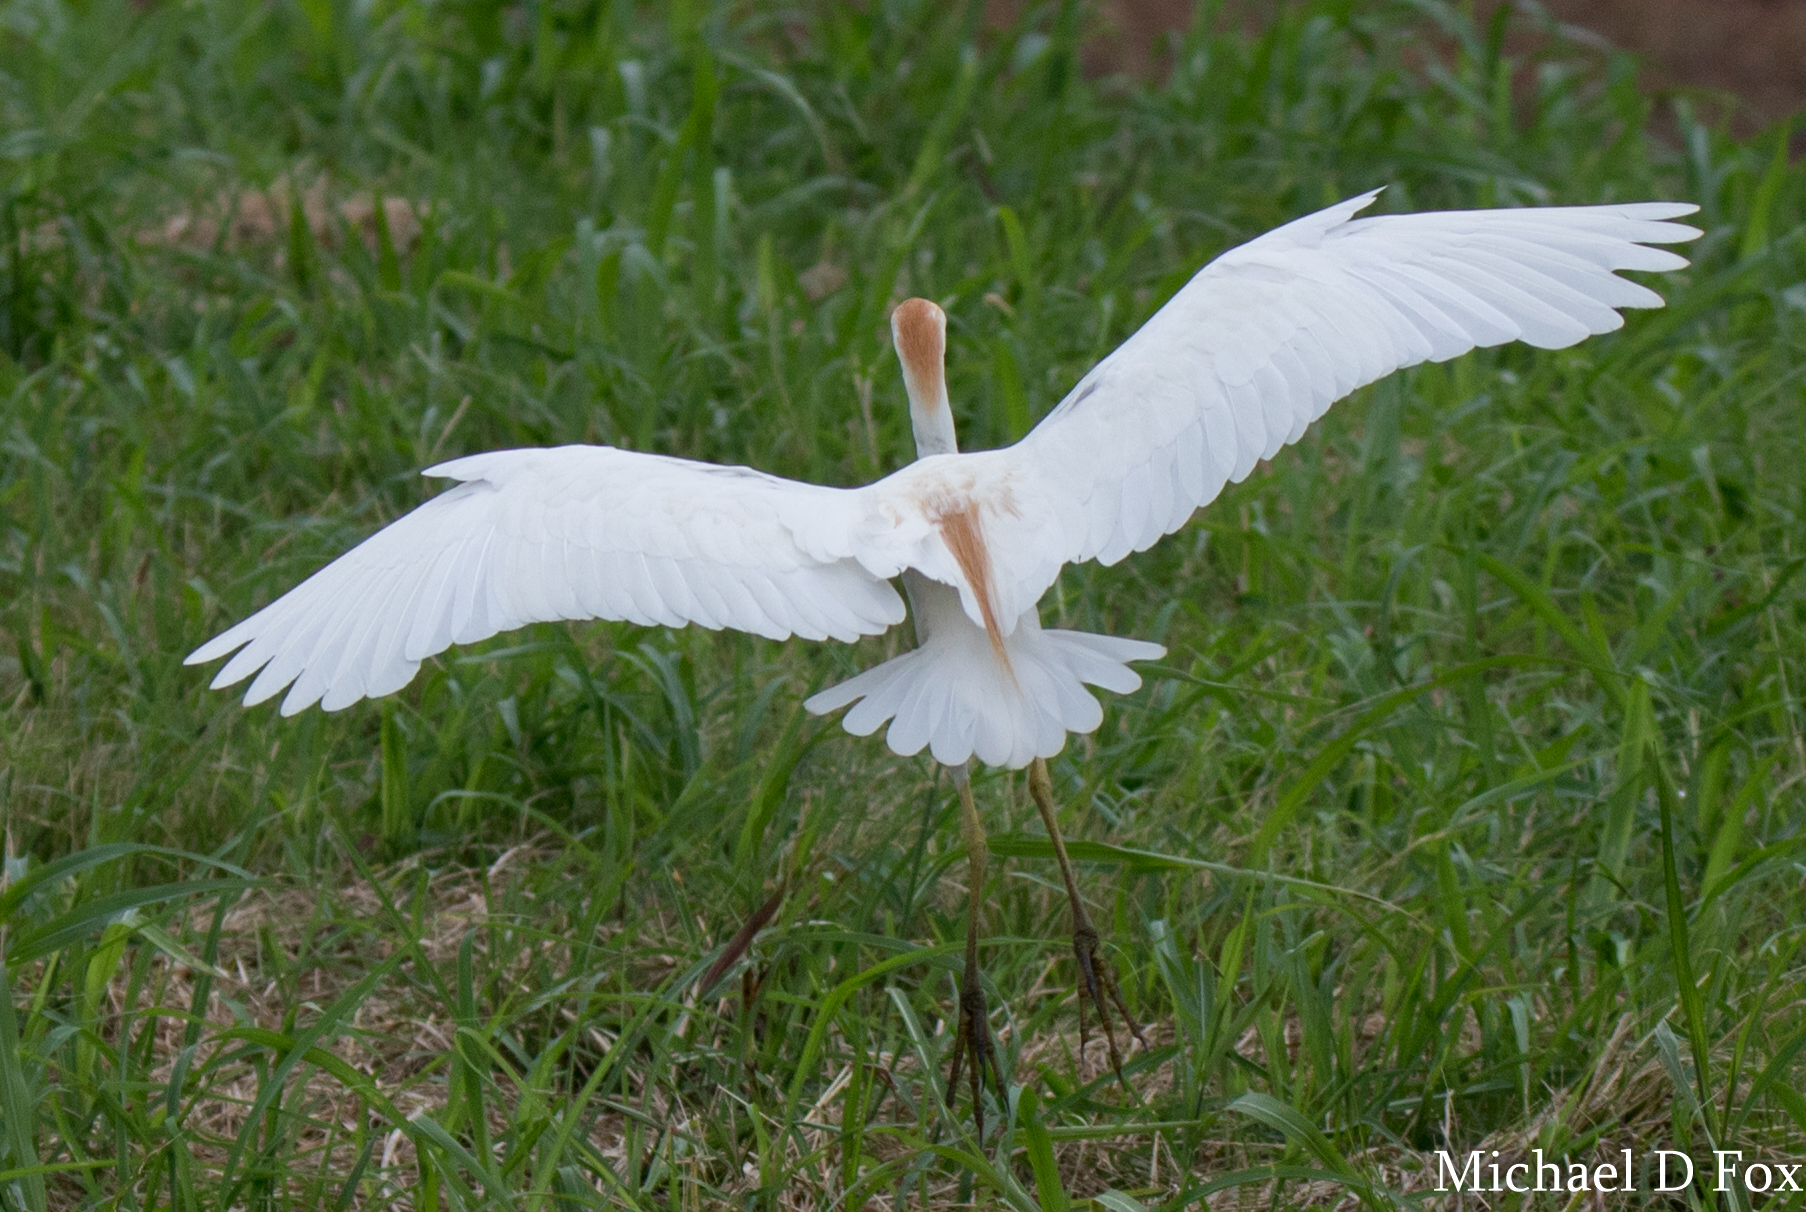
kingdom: Animalia
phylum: Chordata
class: Aves
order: Pelecaniformes
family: Ardeidae
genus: Bubulcus
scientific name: Bubulcus ibis
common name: Cattle egret
